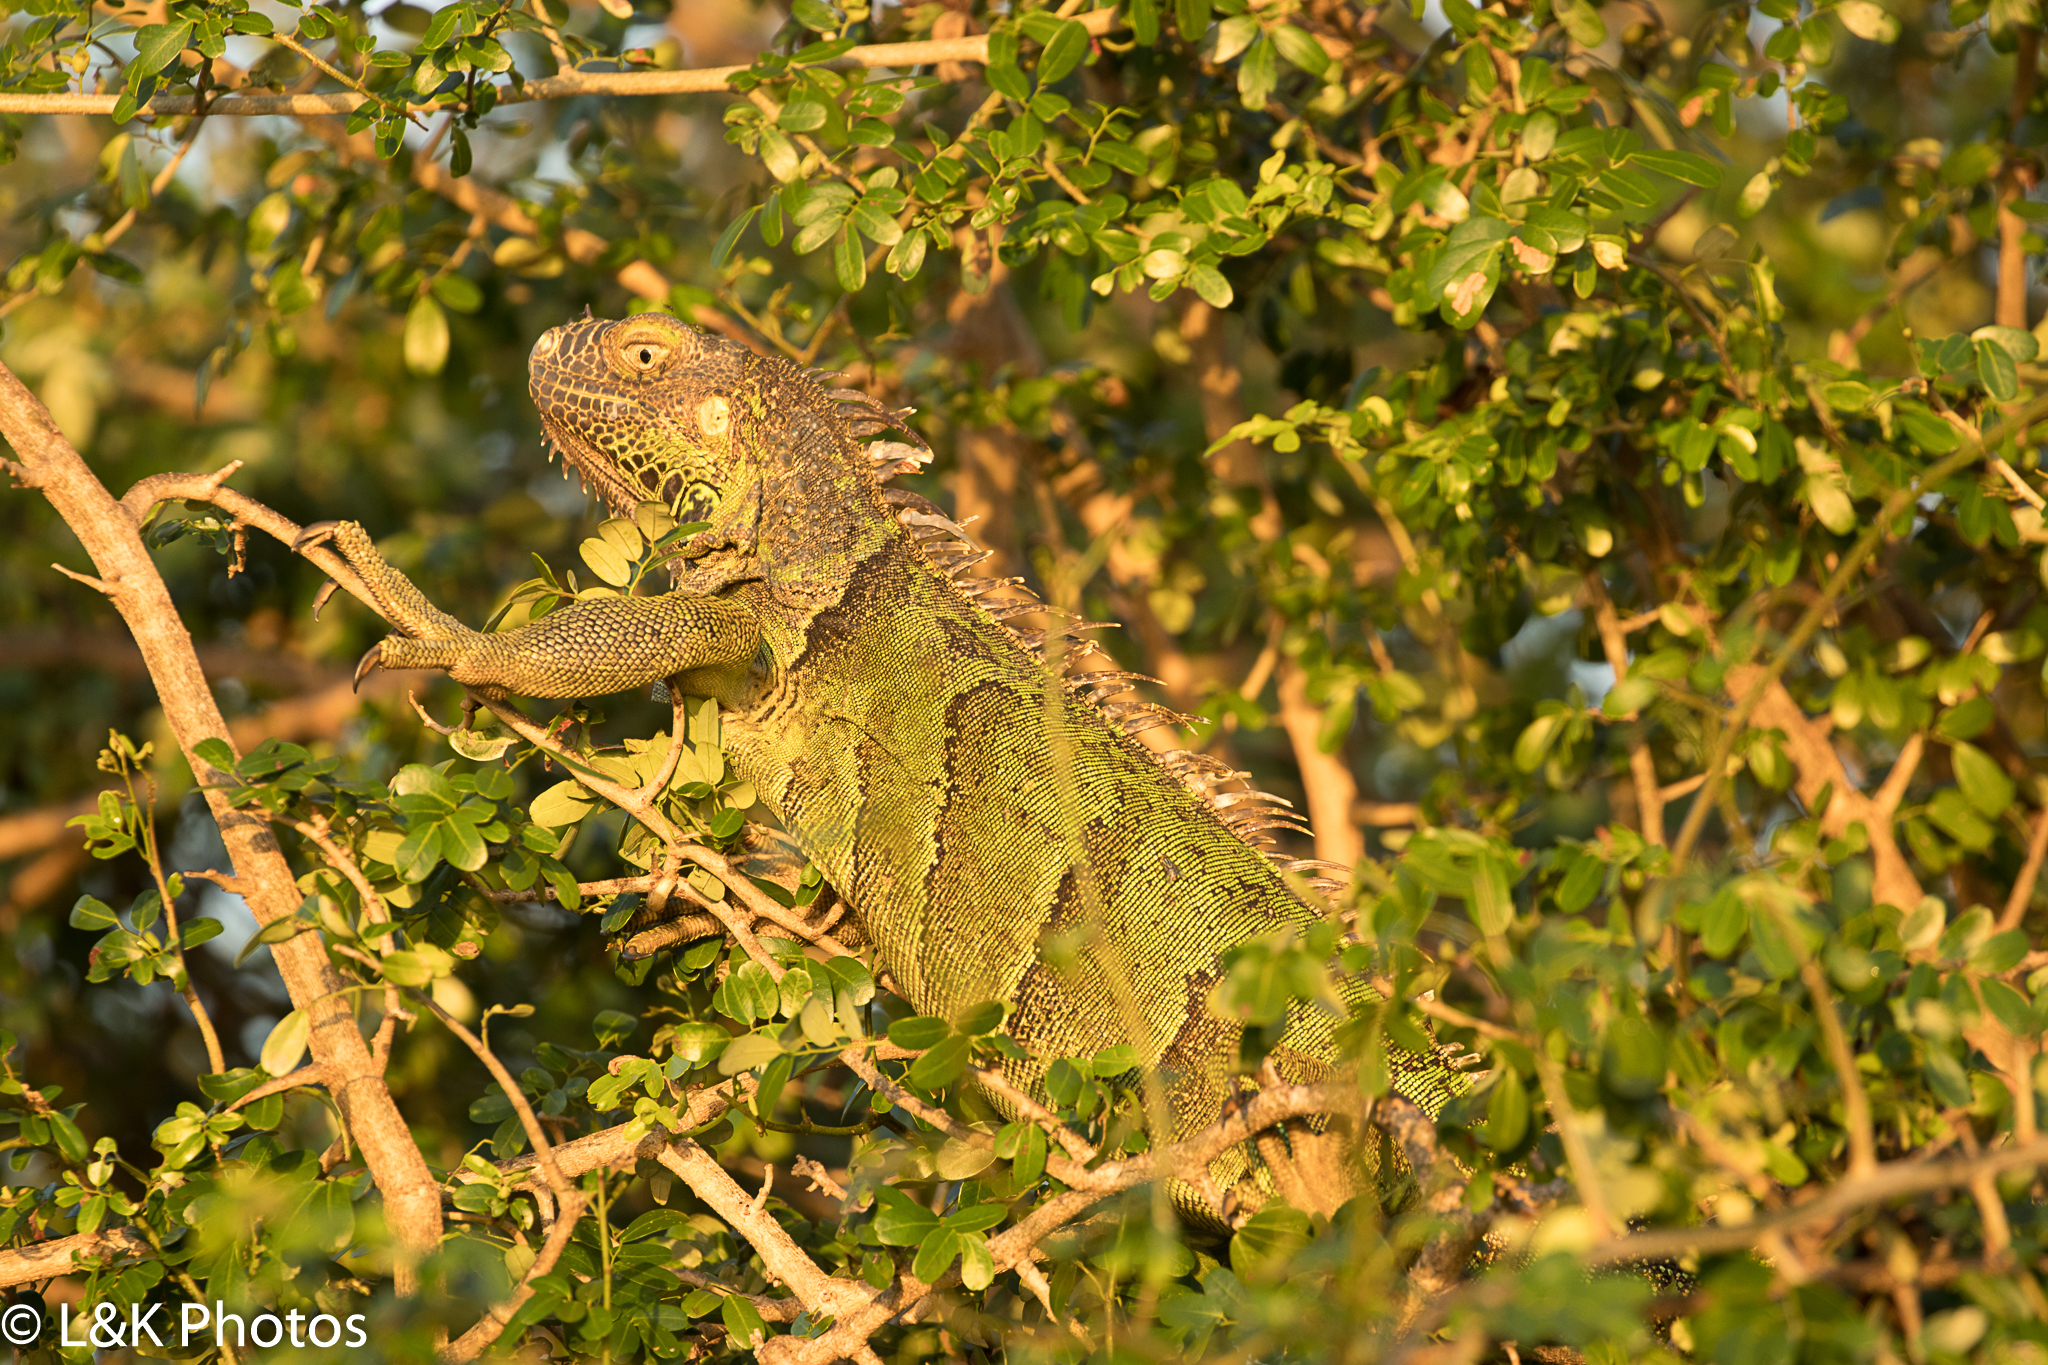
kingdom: Animalia
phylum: Chordata
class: Squamata
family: Iguanidae
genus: Iguana
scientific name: Iguana iguana
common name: Green iguana
